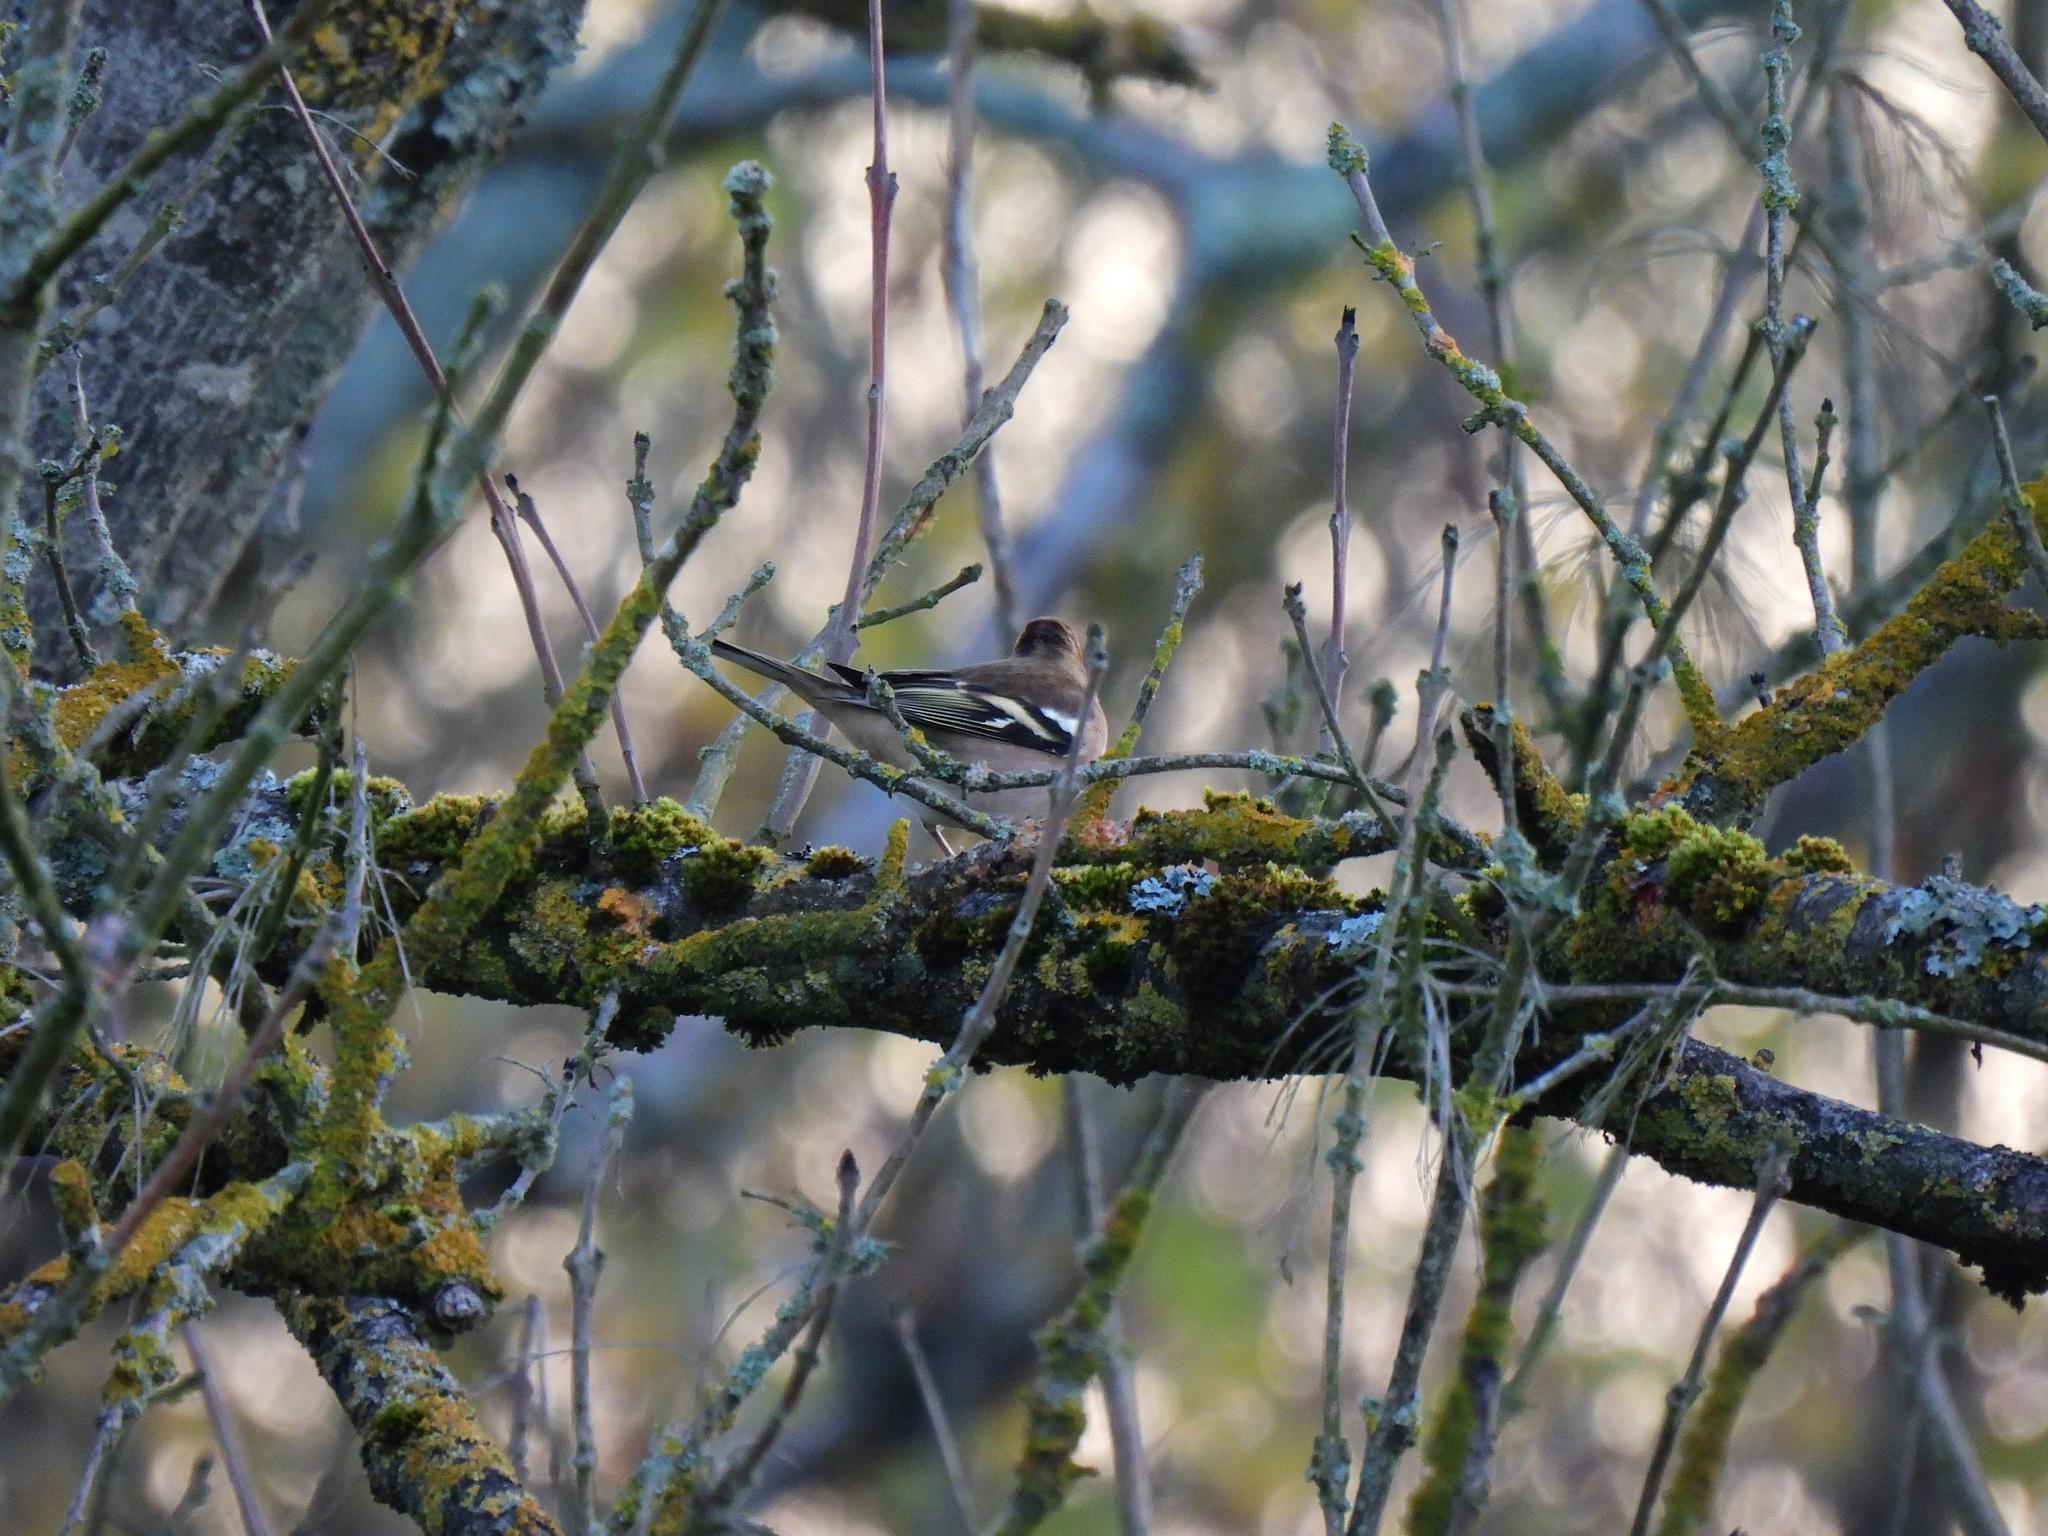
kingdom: Animalia
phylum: Chordata
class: Aves
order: Passeriformes
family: Fringillidae
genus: Fringilla
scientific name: Fringilla coelebs
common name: Common chaffinch
